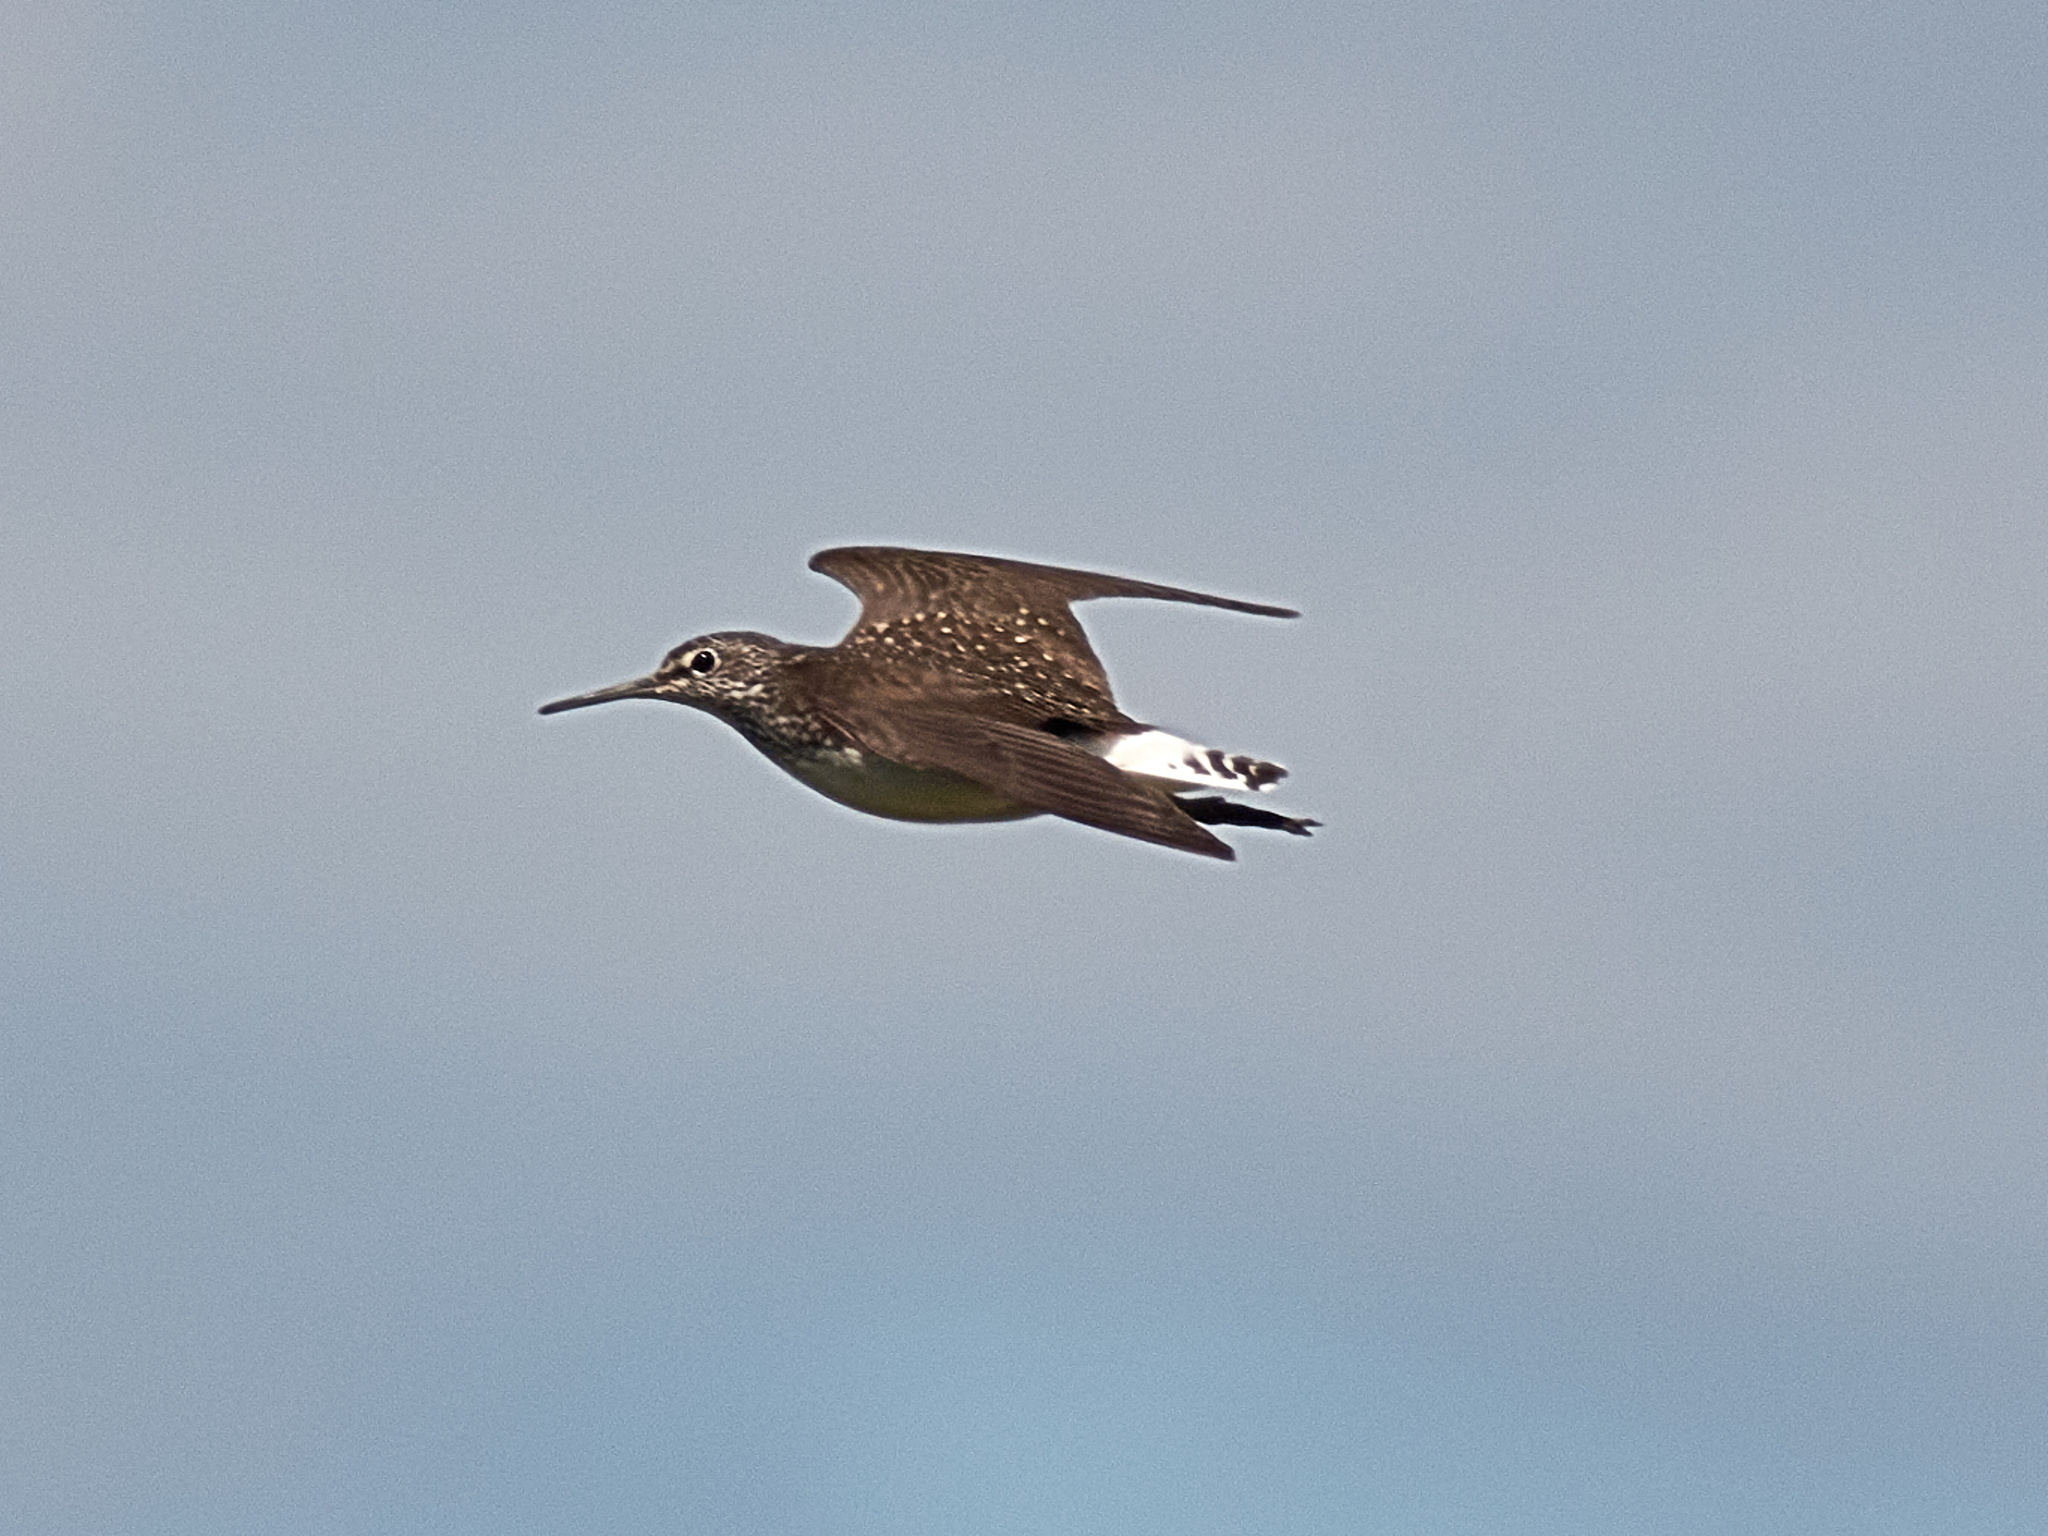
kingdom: Animalia
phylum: Chordata
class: Aves
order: Charadriiformes
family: Scolopacidae
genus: Tringa
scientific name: Tringa ochropus
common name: Green sandpiper
